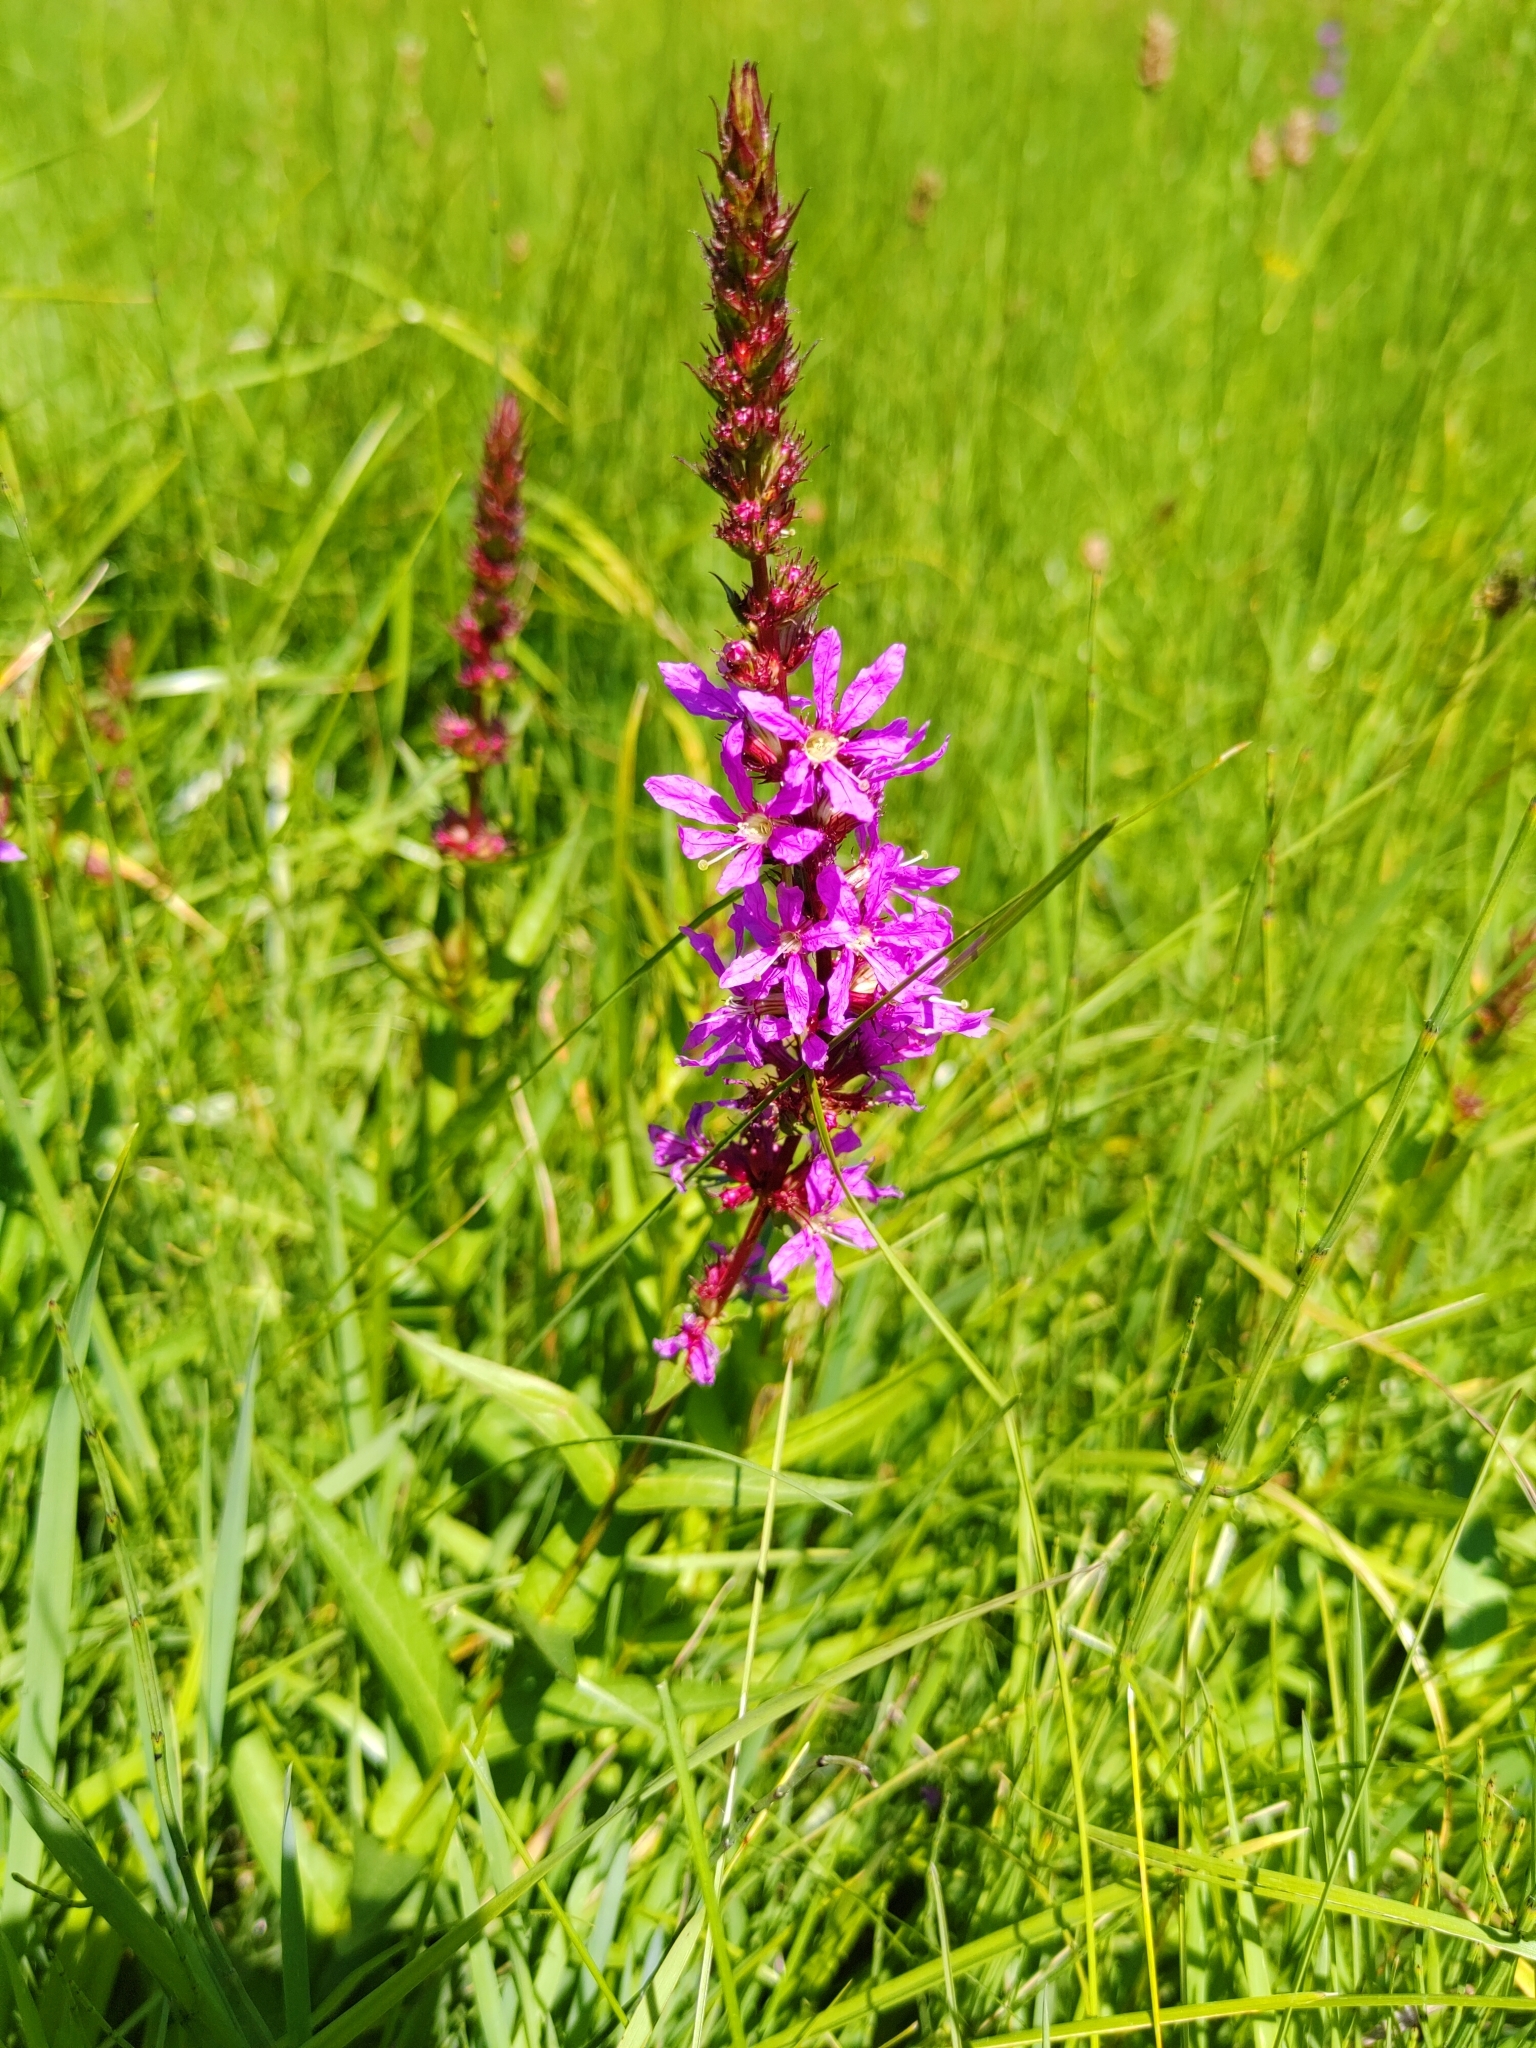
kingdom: Plantae
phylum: Tracheophyta
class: Magnoliopsida
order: Myrtales
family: Lythraceae
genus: Lythrum
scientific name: Lythrum salicaria
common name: Purple loosestrife
